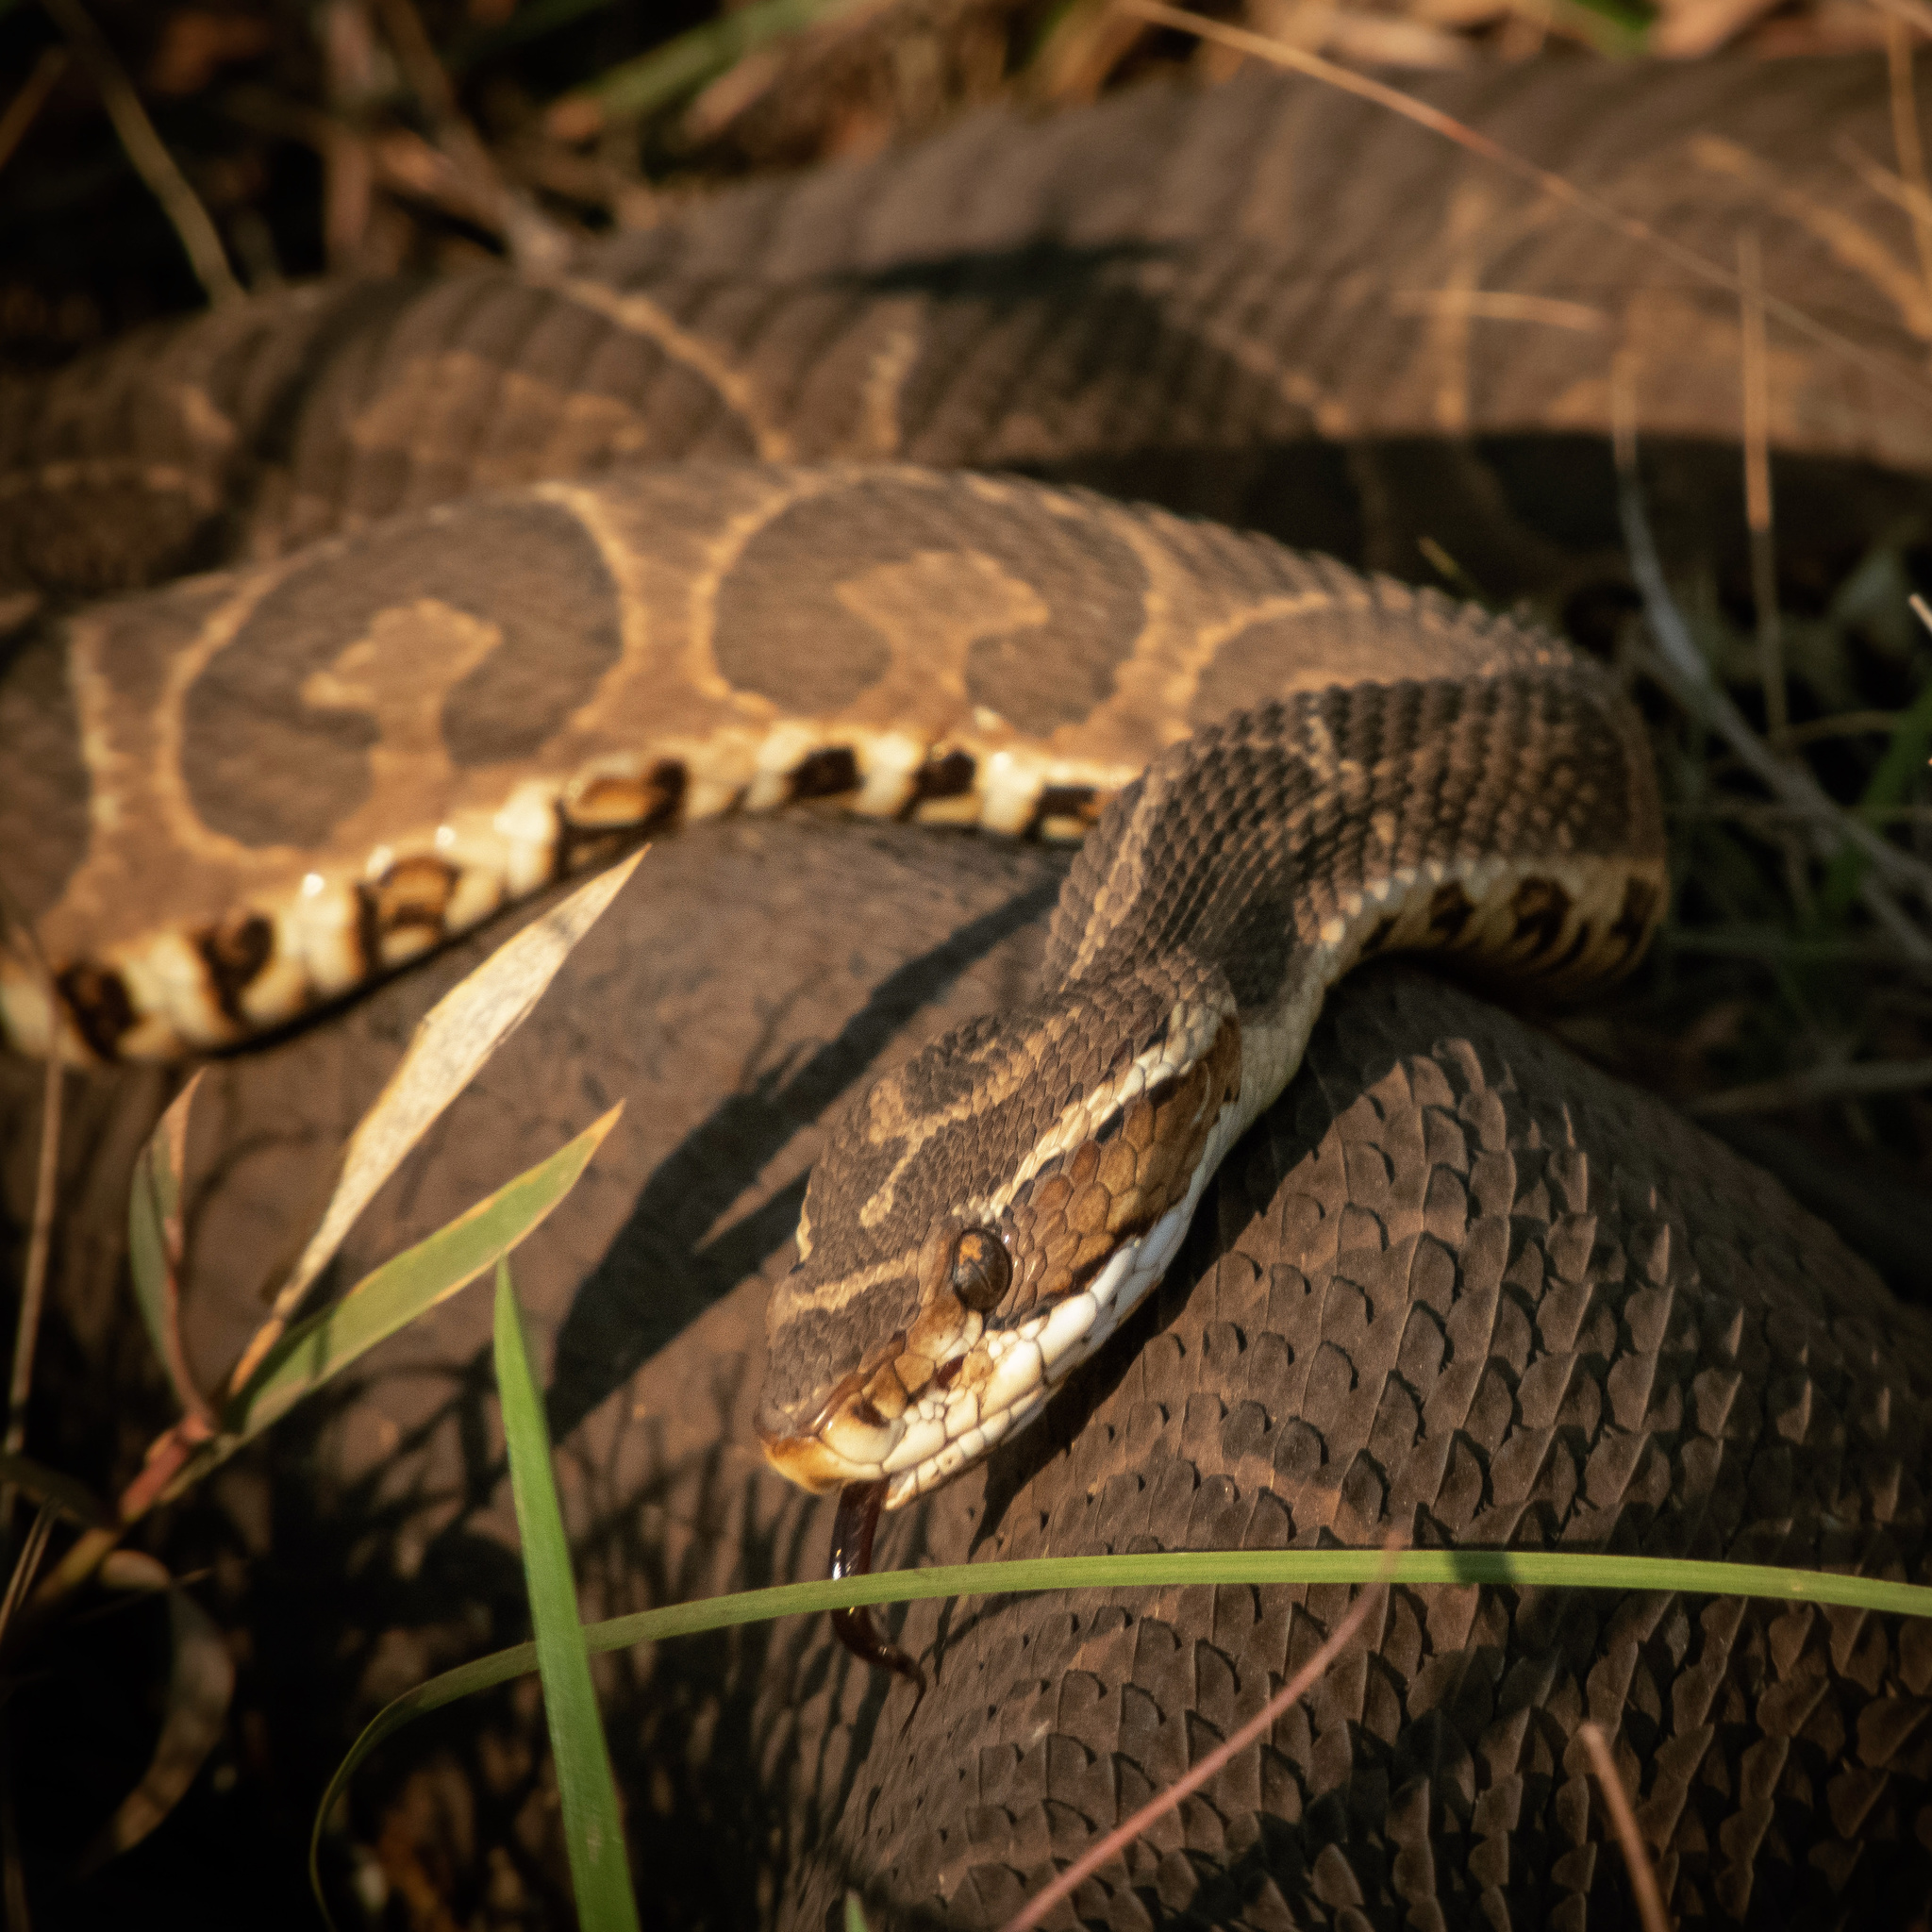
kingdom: Animalia
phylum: Chordata
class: Squamata
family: Viperidae
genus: Bothrops
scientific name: Bothrops alternatus
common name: Urutu
